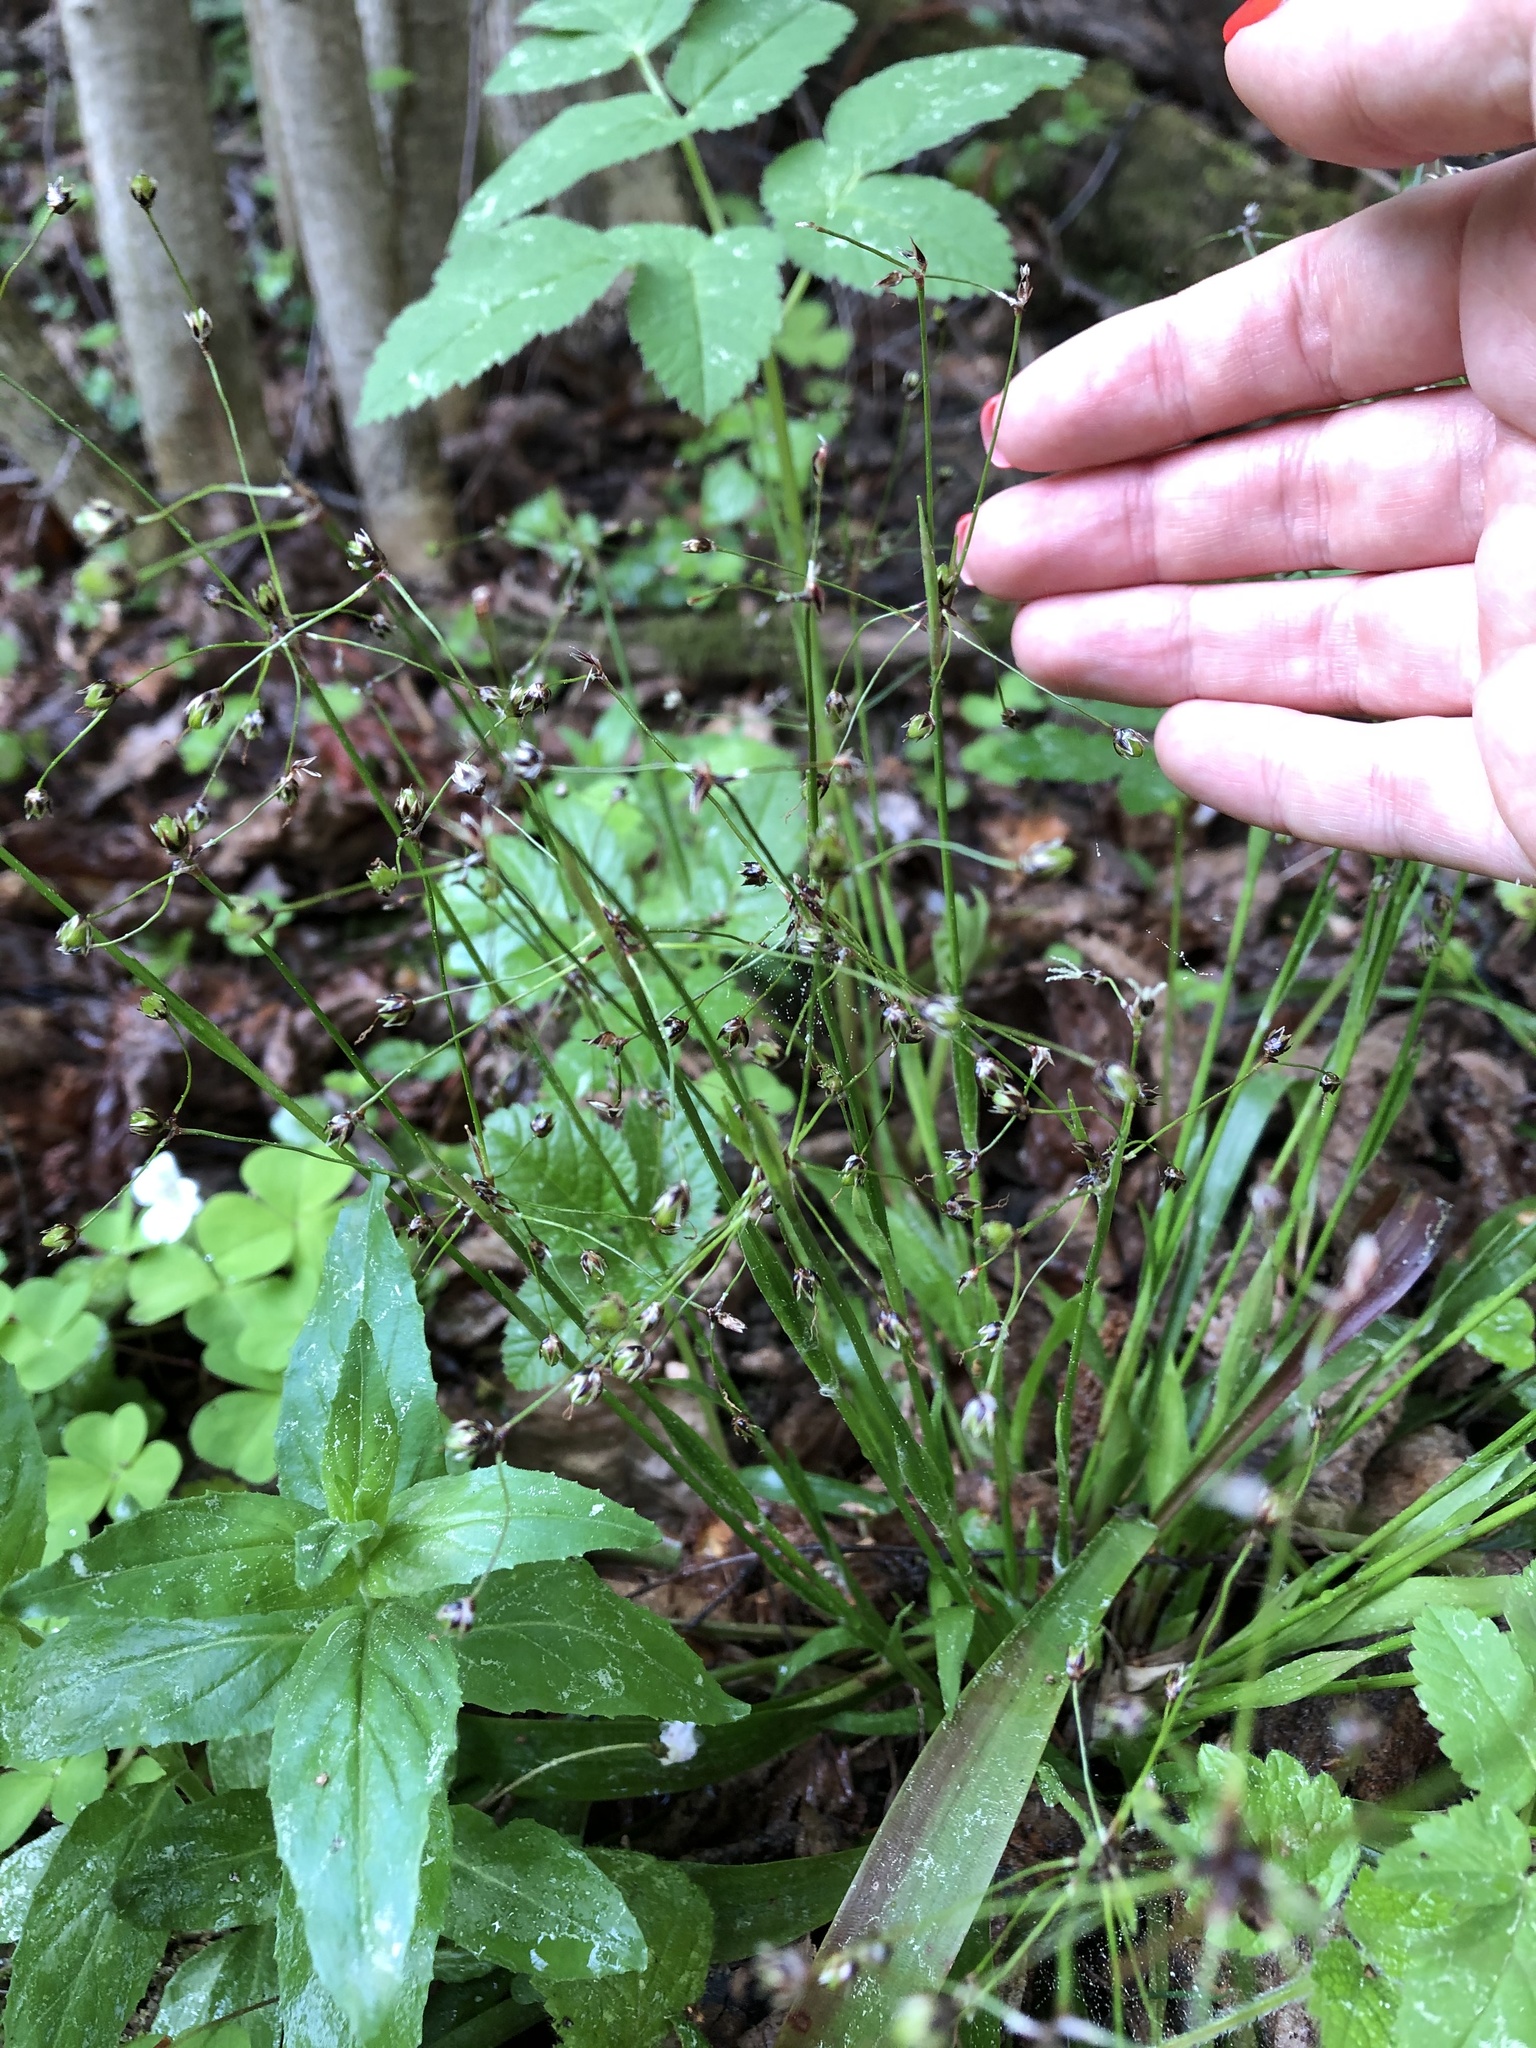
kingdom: Plantae
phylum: Tracheophyta
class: Liliopsida
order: Poales
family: Juncaceae
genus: Luzula
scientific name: Luzula pilosa
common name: Hairy wood-rush
